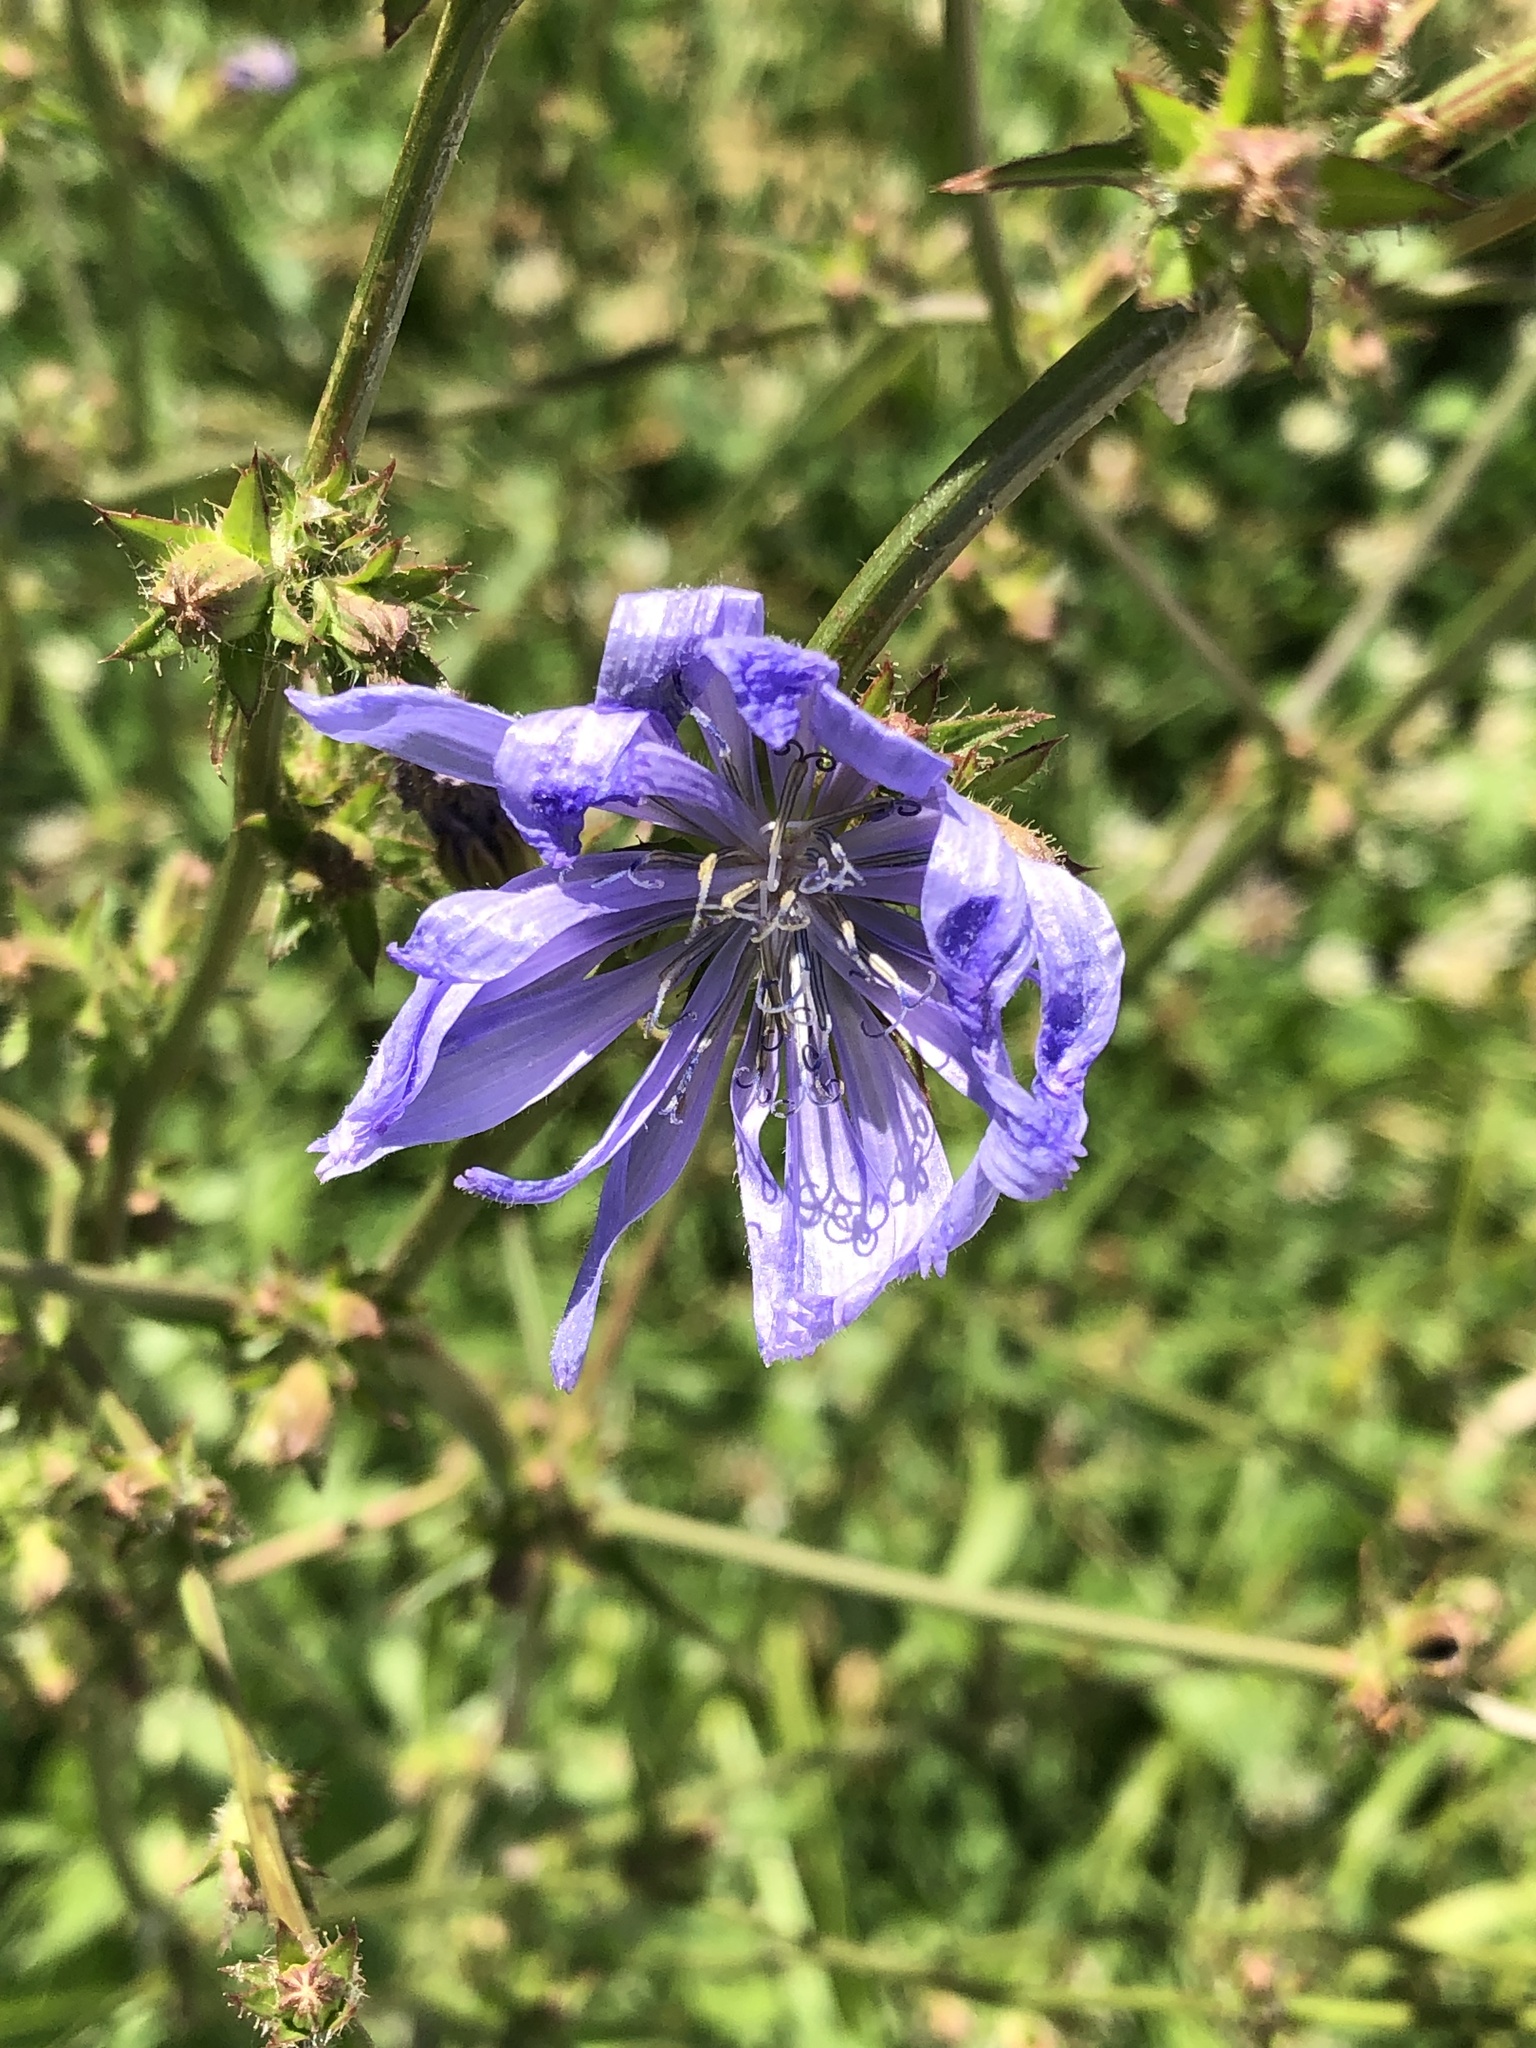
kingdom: Plantae
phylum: Tracheophyta
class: Magnoliopsida
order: Asterales
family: Asteraceae
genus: Cichorium
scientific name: Cichorium intybus
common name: Chicory
